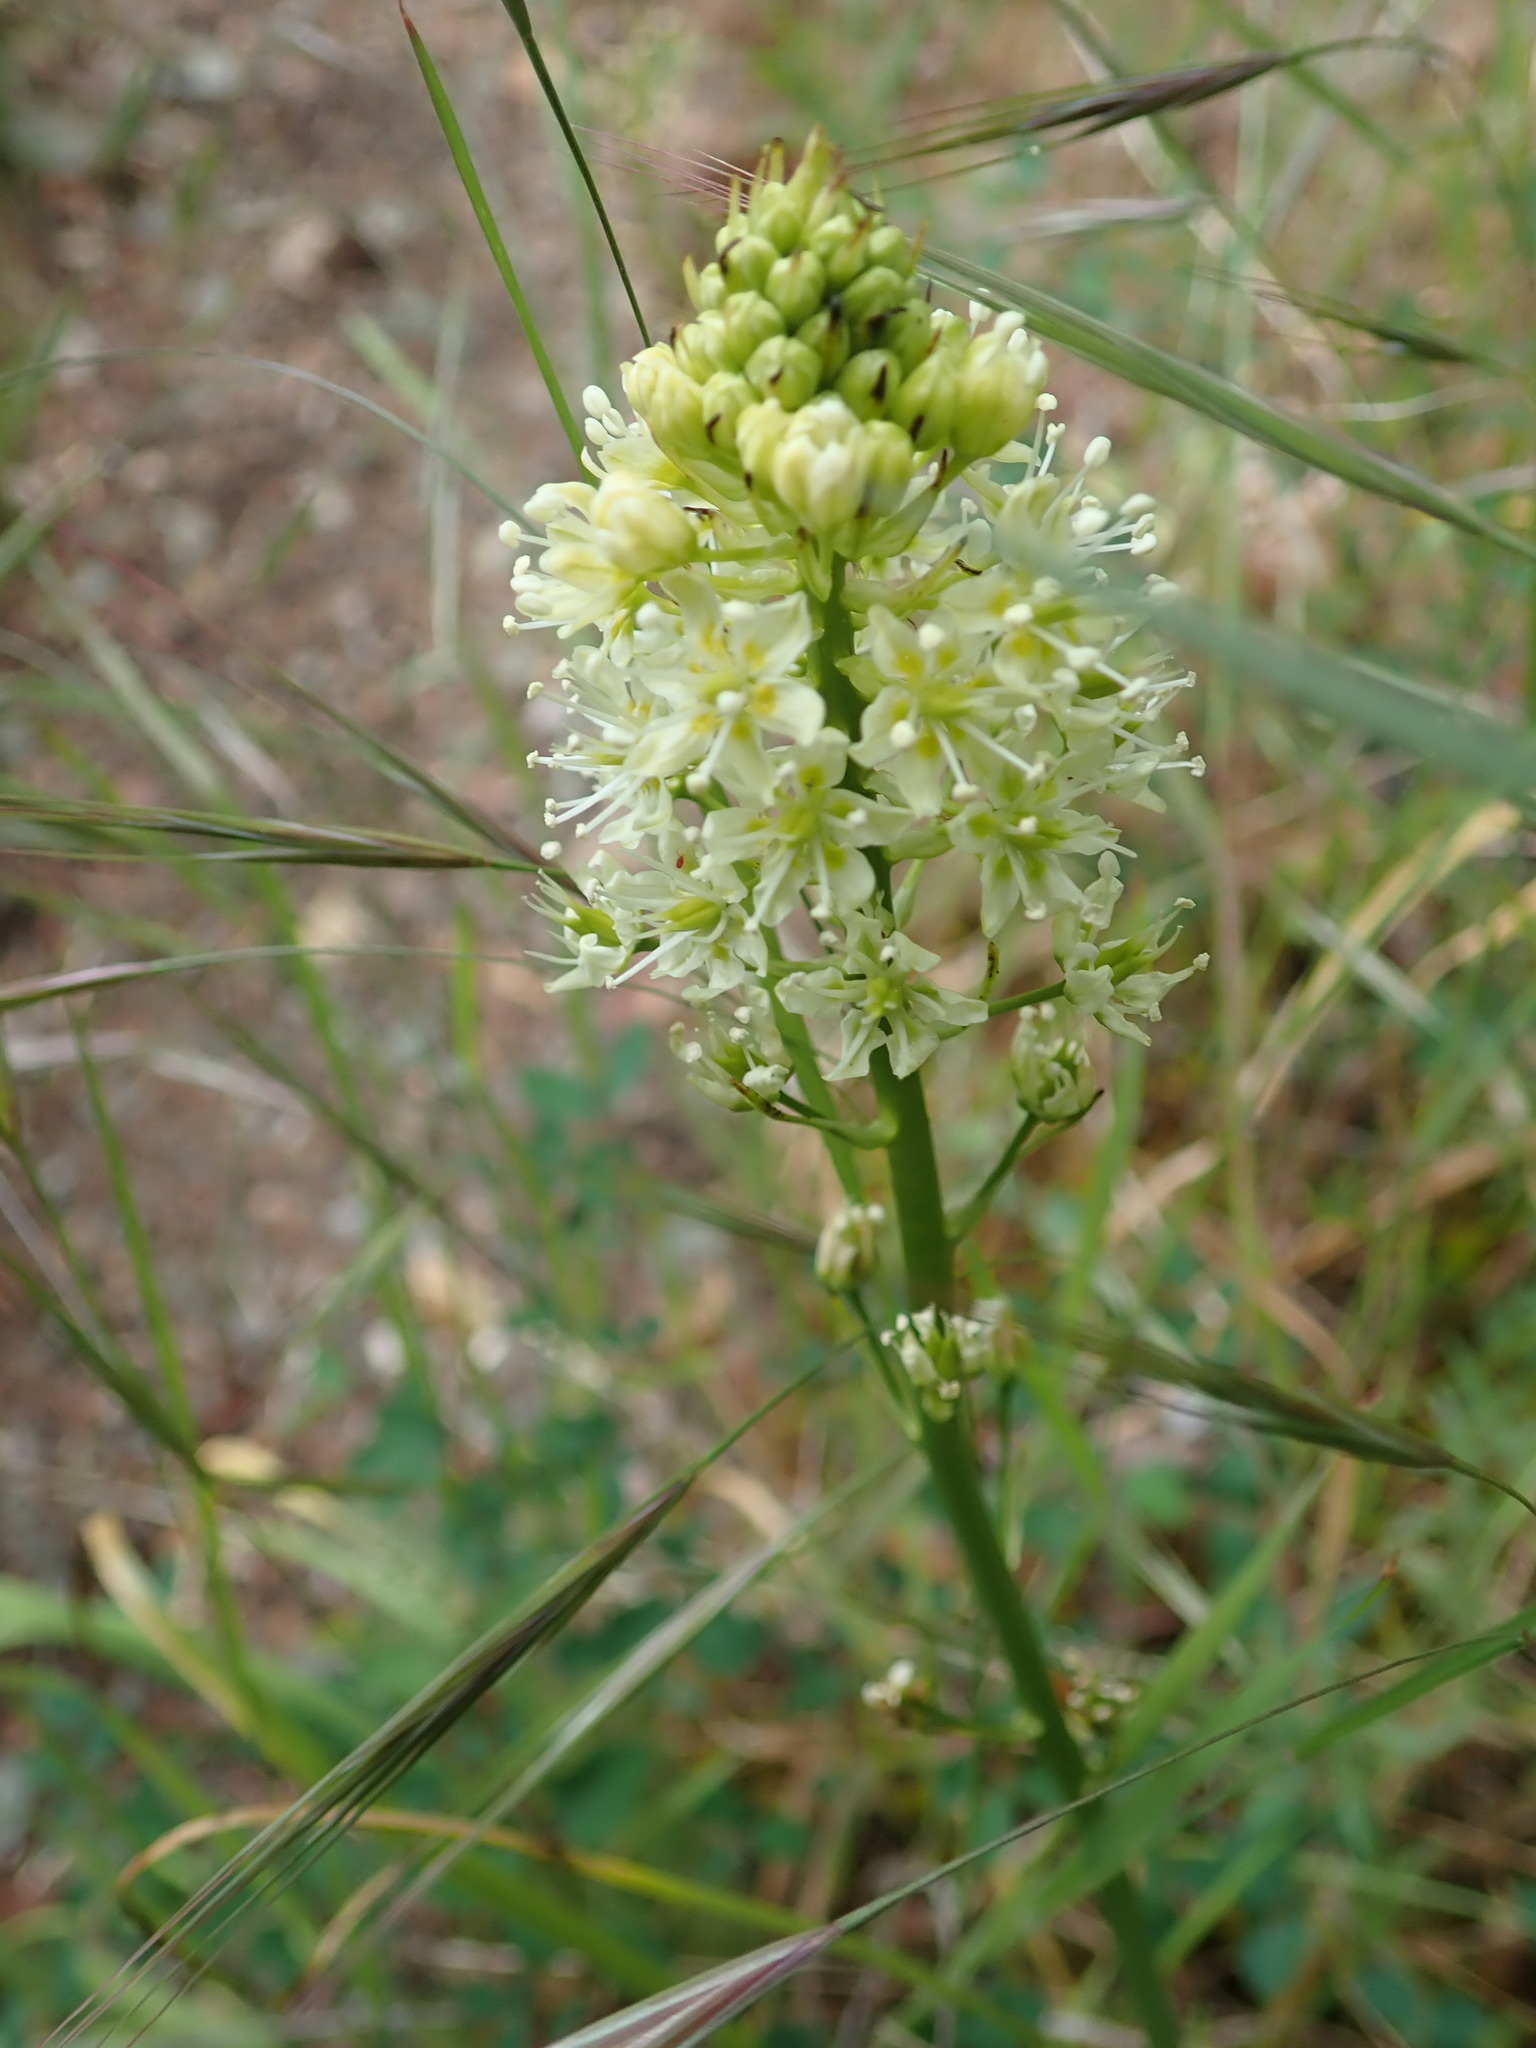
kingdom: Plantae
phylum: Tracheophyta
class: Liliopsida
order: Liliales
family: Melanthiaceae
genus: Toxicoscordion
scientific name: Toxicoscordion venenosum
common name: Meadow death camas
